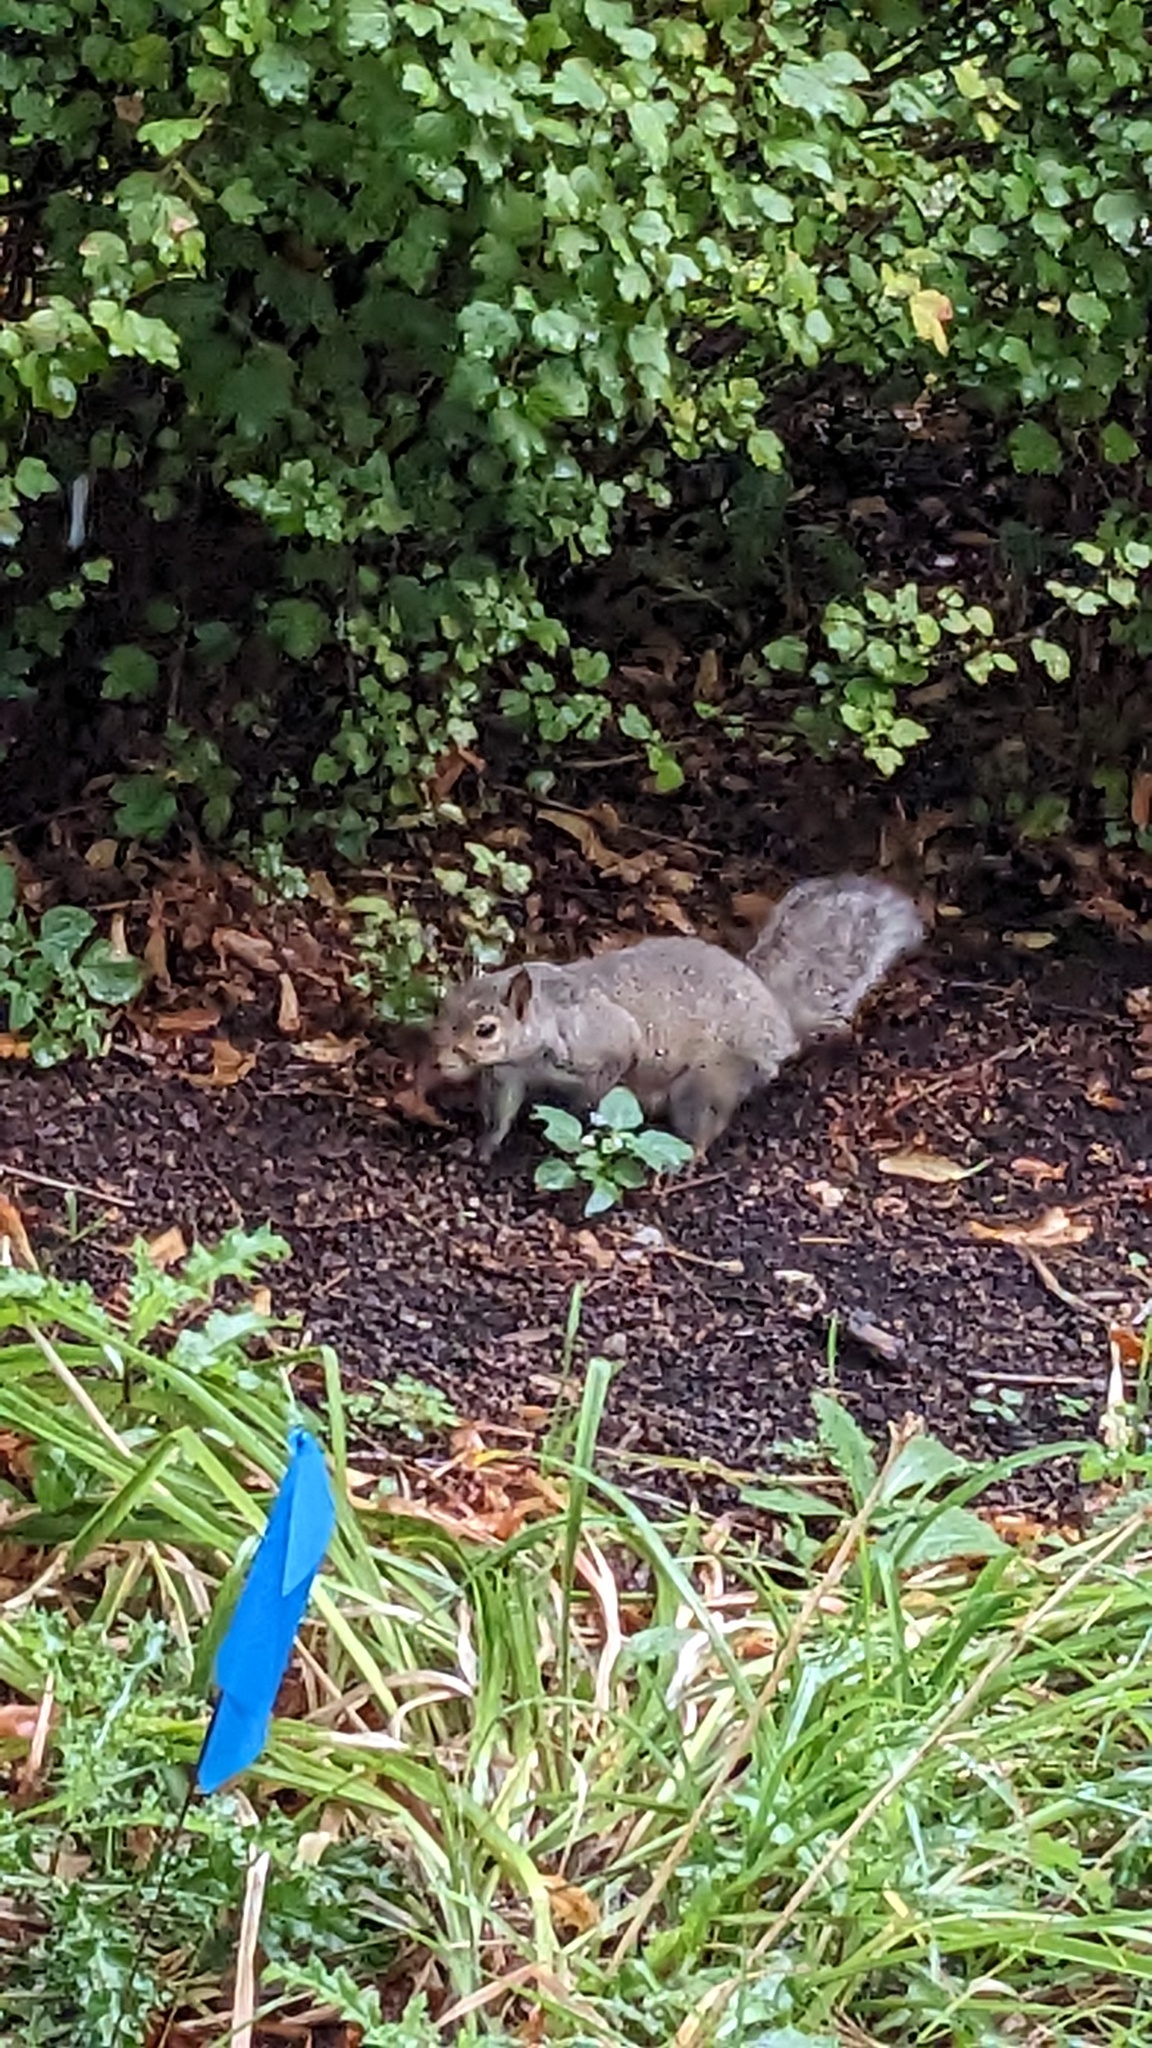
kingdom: Animalia
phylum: Chordata
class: Mammalia
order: Rodentia
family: Sciuridae
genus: Sciurus
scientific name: Sciurus carolinensis
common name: Eastern gray squirrel
